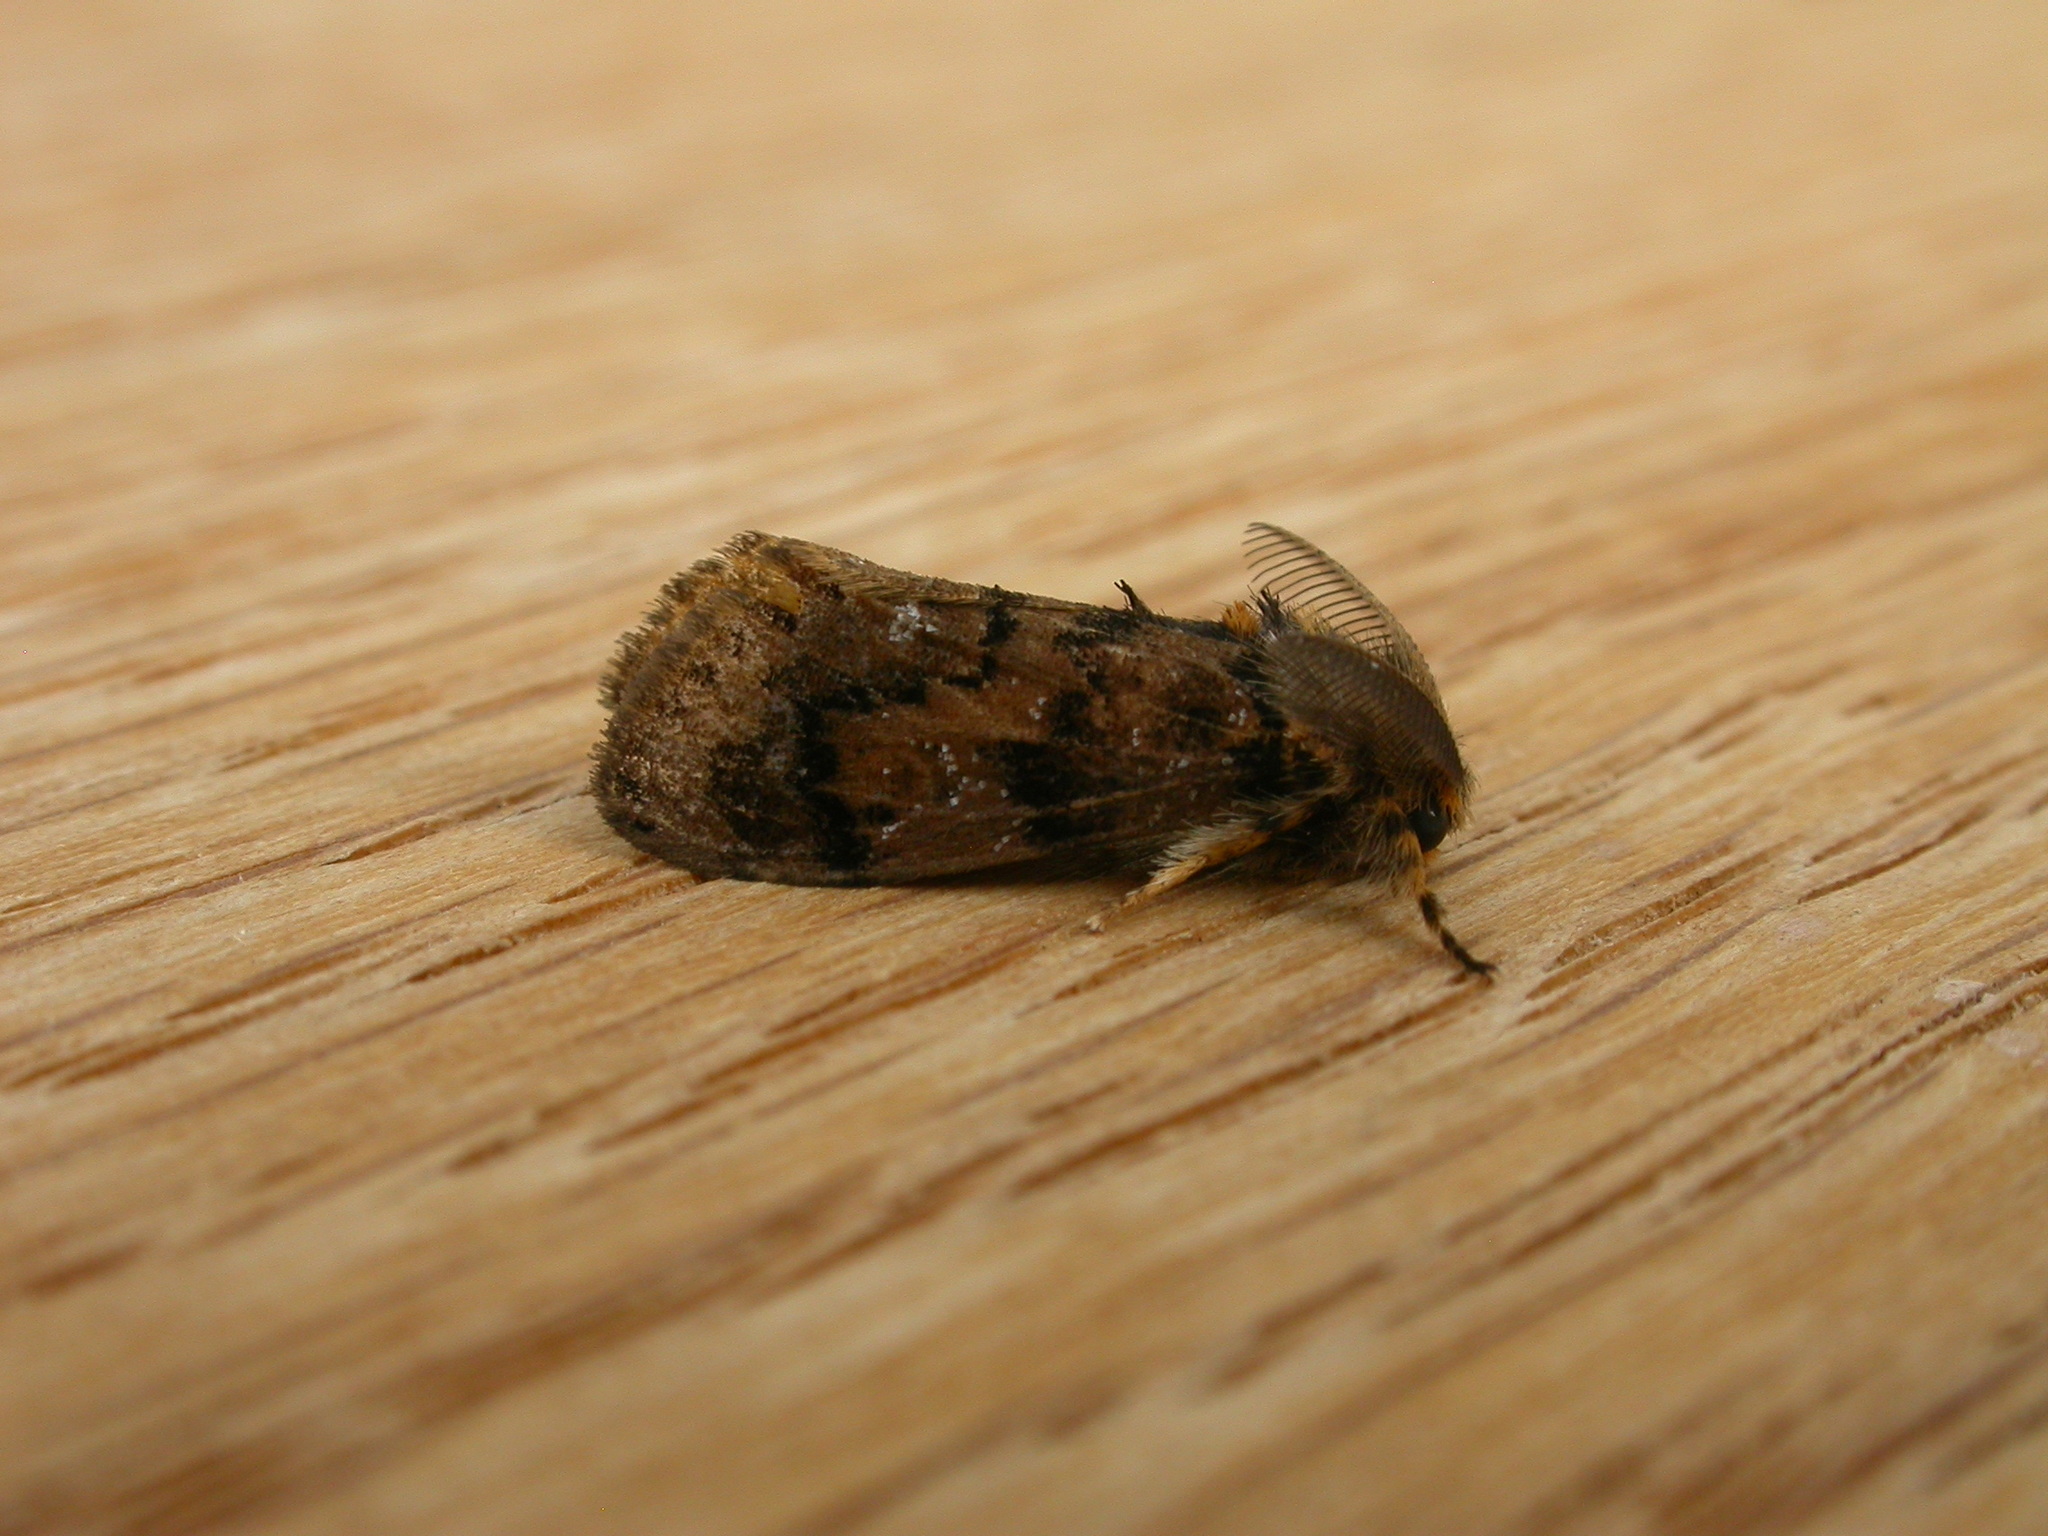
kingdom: Animalia
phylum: Arthropoda
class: Insecta
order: Lepidoptera
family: Erebidae
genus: Orgyia
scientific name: Orgyia
